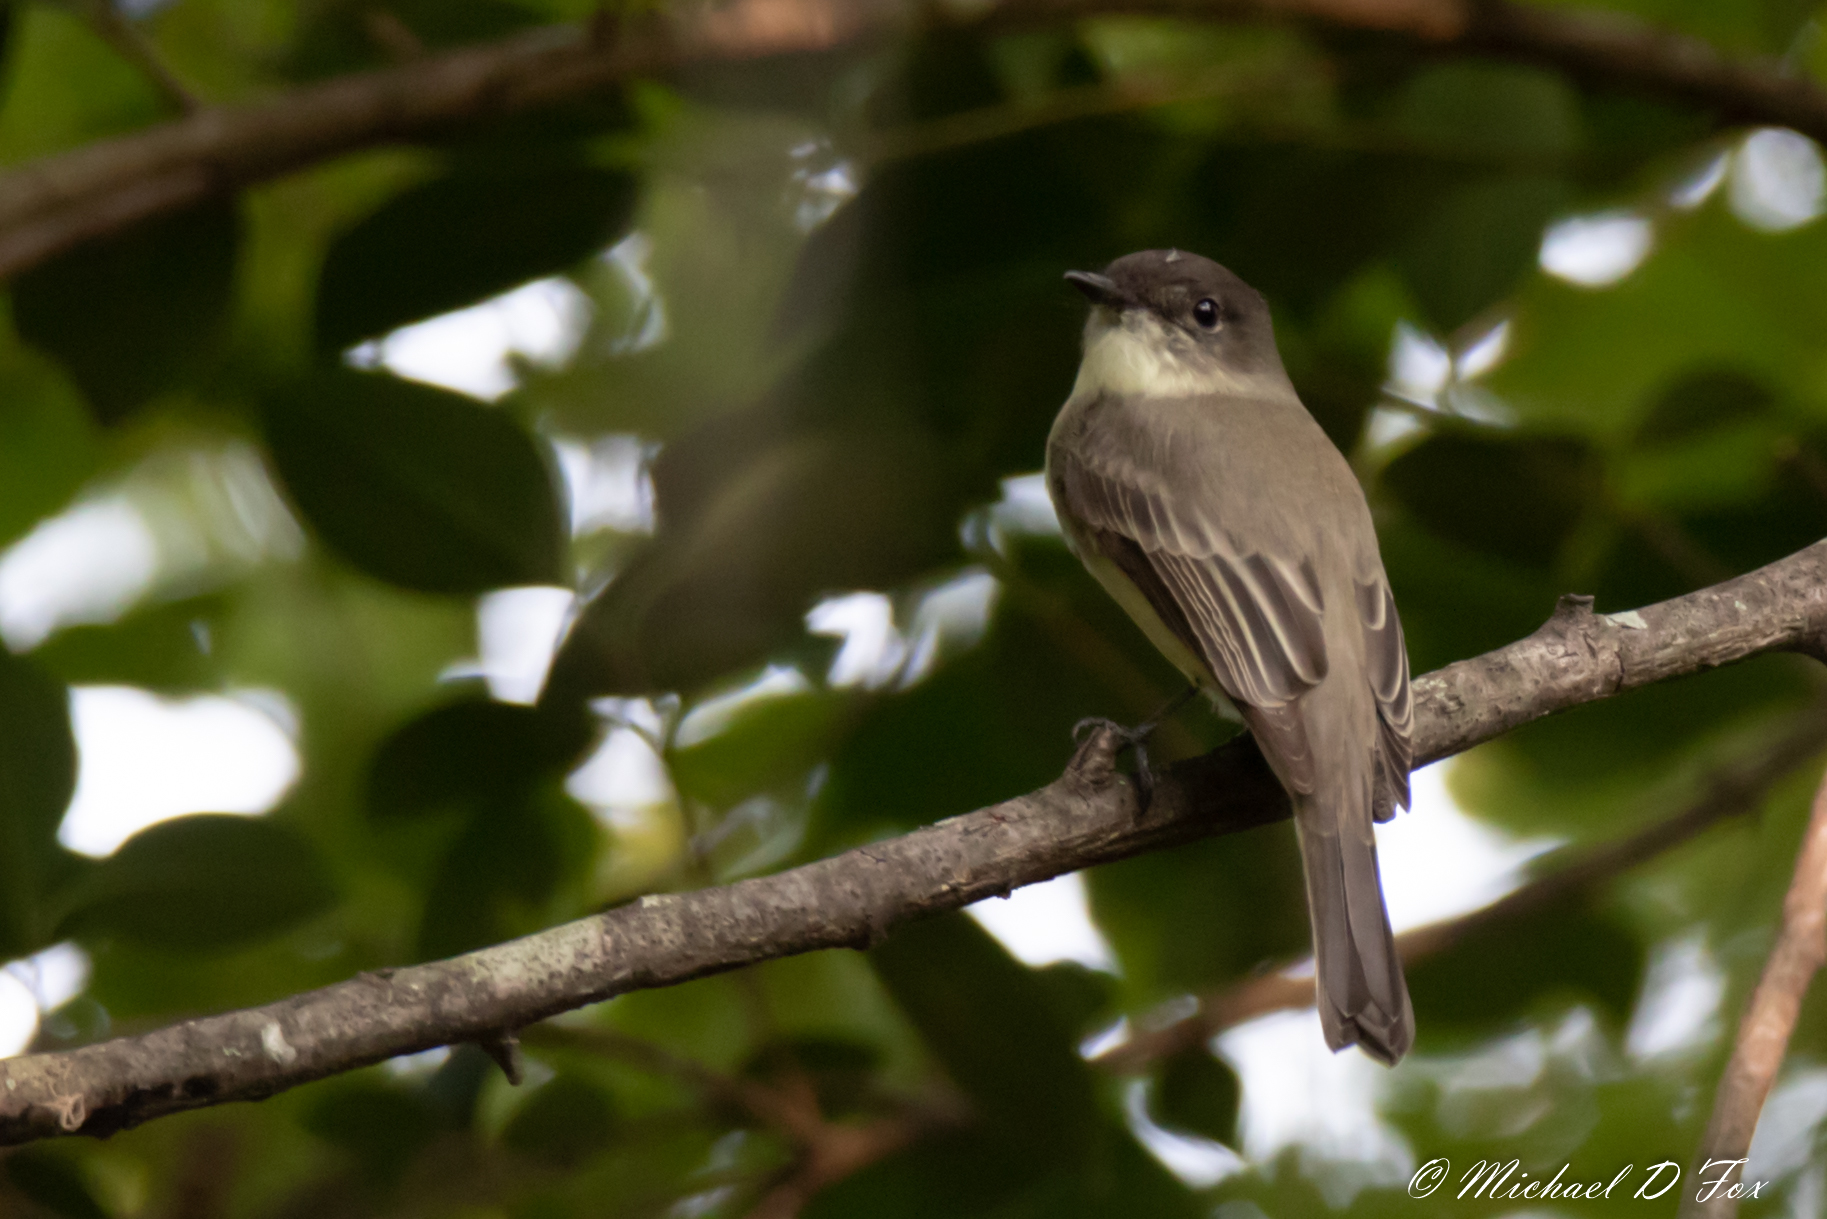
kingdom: Animalia
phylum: Chordata
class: Aves
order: Passeriformes
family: Tyrannidae
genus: Sayornis
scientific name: Sayornis phoebe
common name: Eastern phoebe
